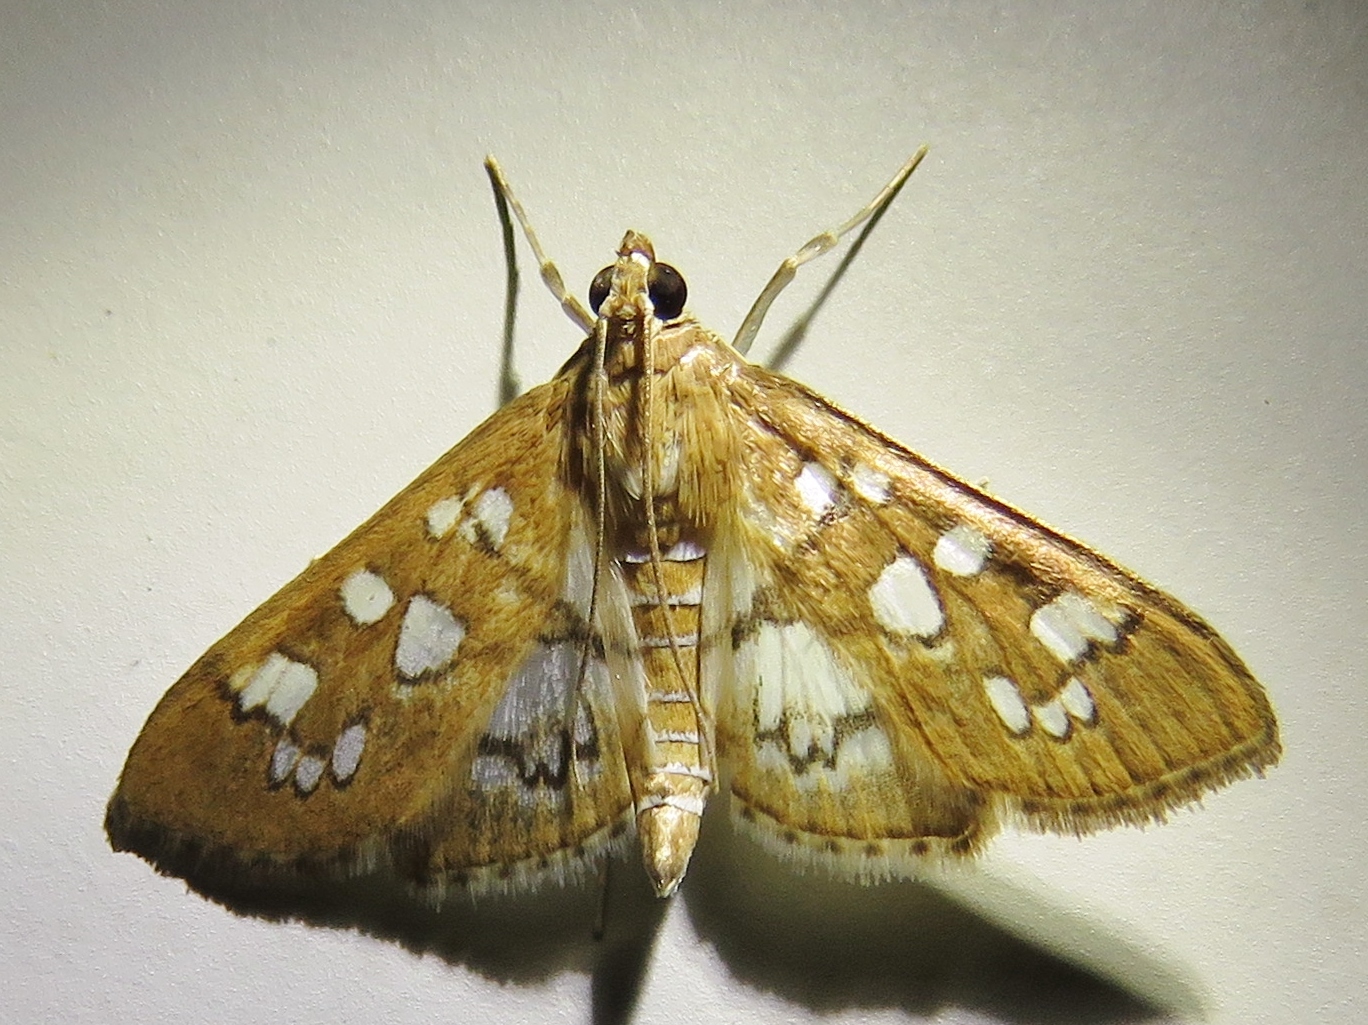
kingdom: Animalia
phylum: Arthropoda
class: Insecta
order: Lepidoptera
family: Crambidae
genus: Samea
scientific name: Samea baccatalis
